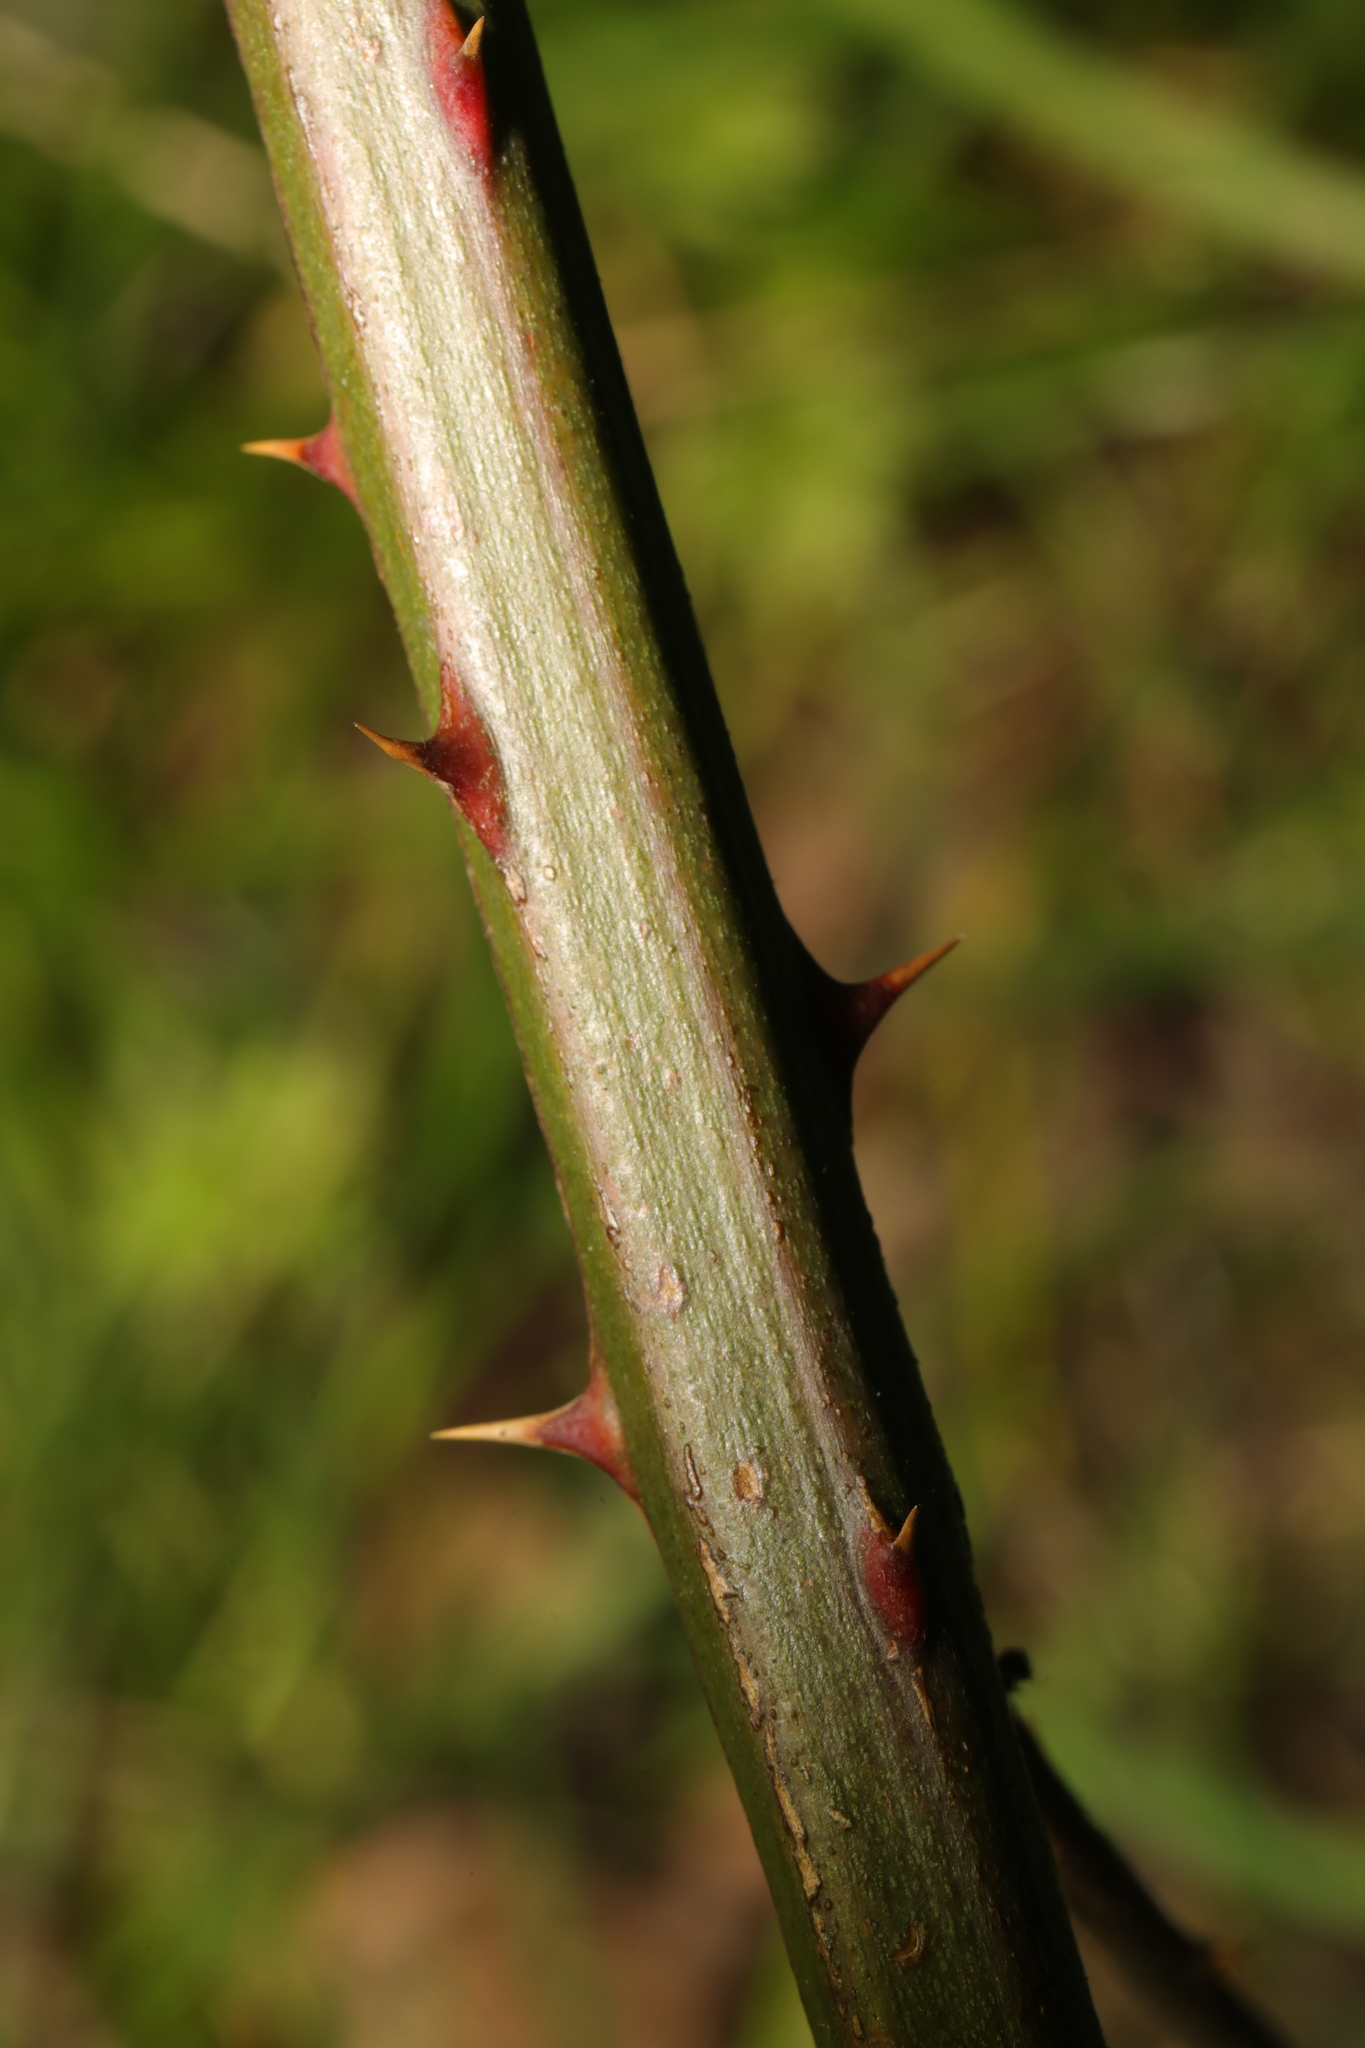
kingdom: Plantae
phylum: Tracheophyta
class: Magnoliopsida
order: Rosales
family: Rosaceae
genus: Rubus
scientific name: Rubus armeniacus
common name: Himalayan blackberry
